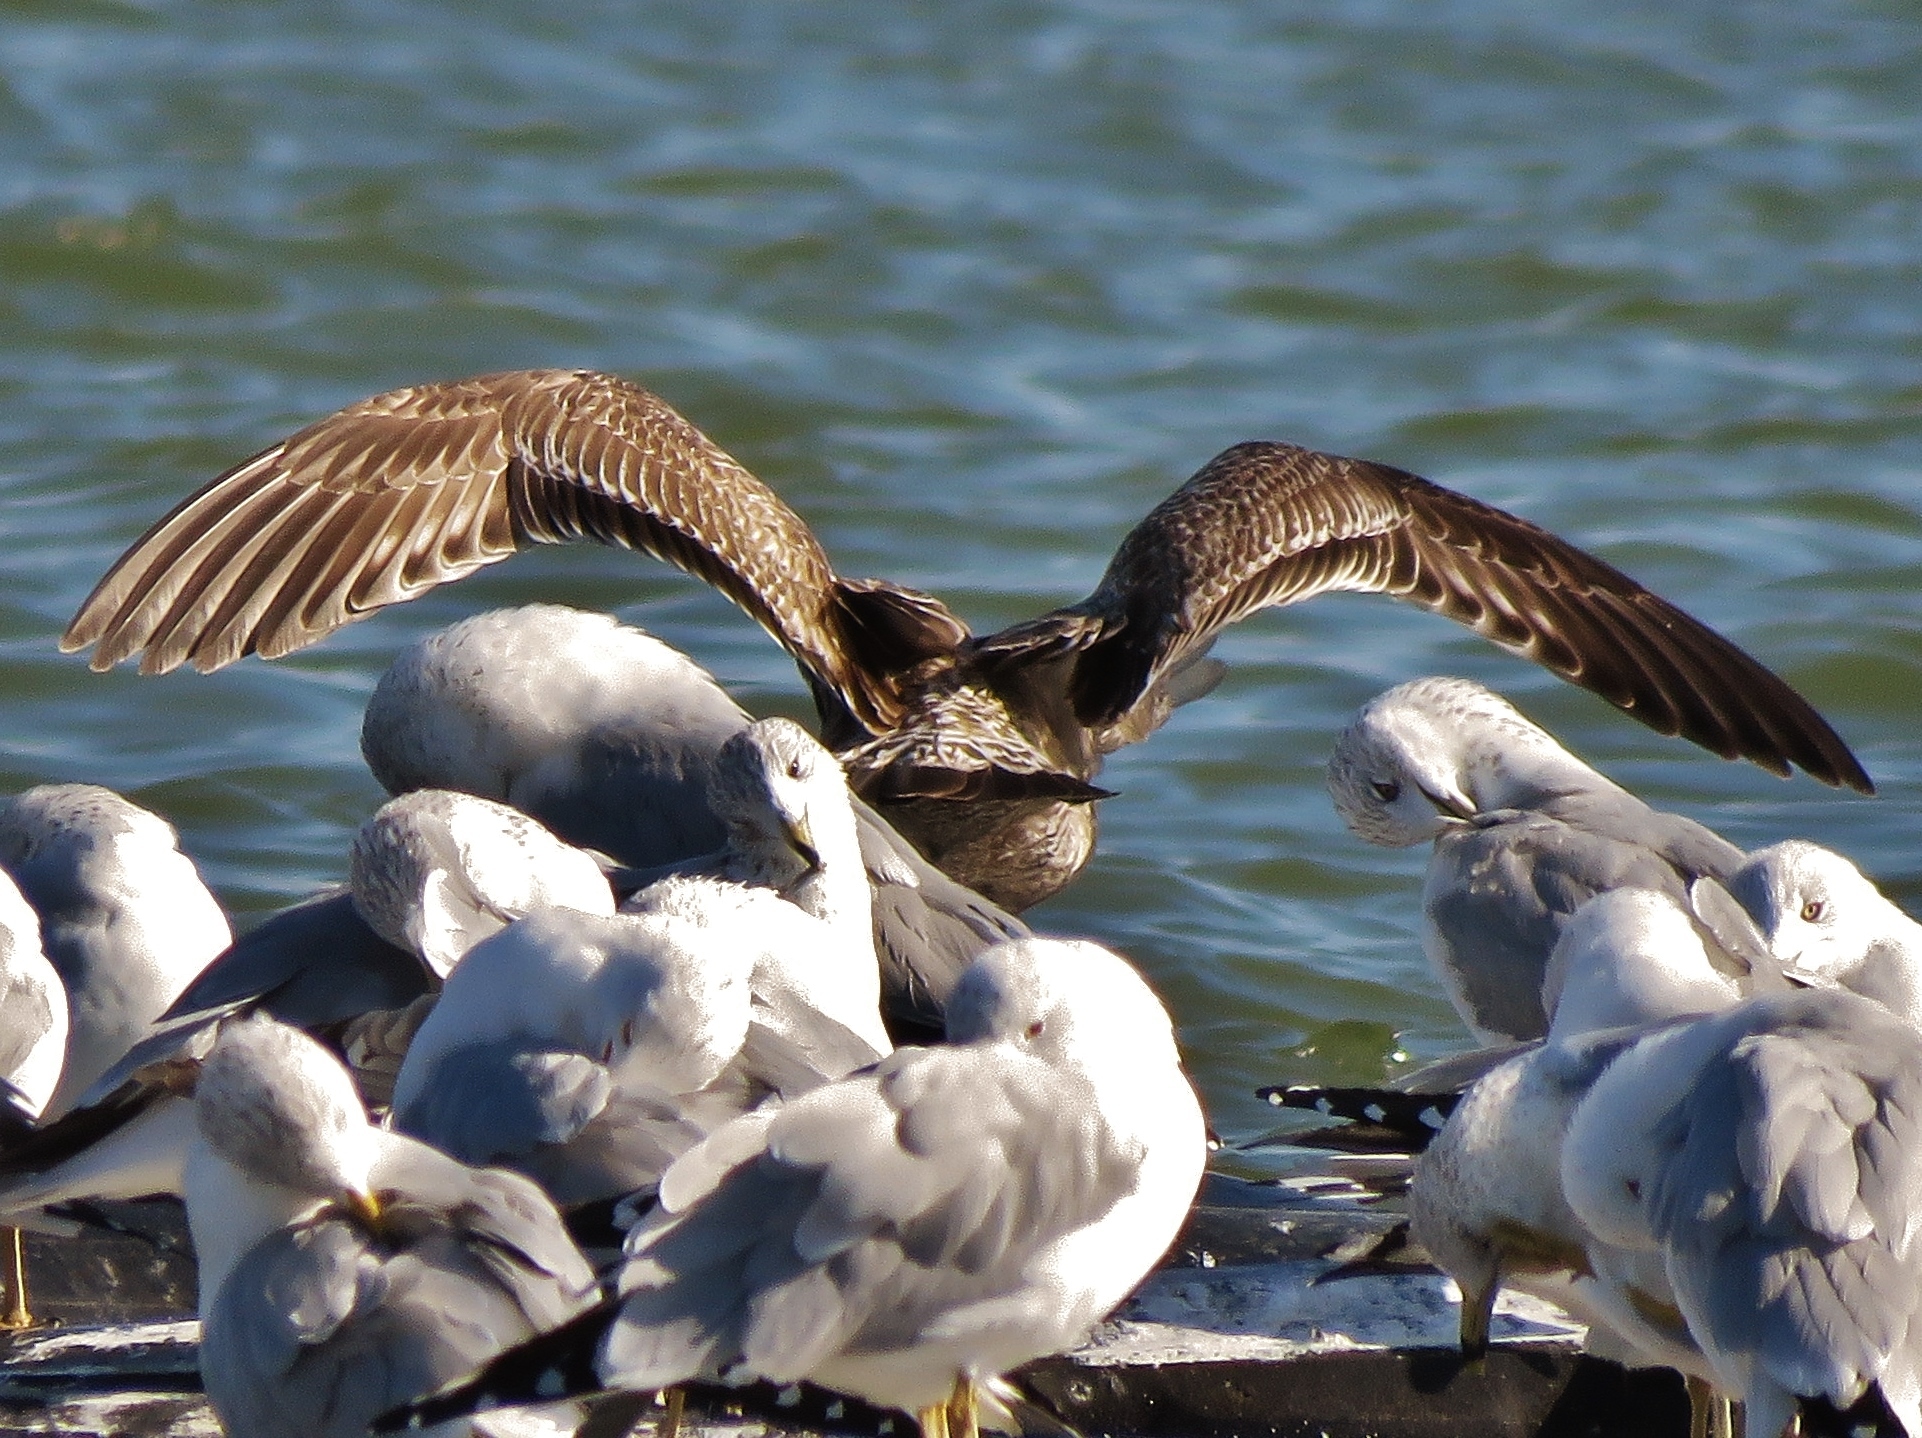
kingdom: Animalia
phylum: Chordata
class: Aves
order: Charadriiformes
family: Laridae
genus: Larus
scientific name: Larus argentatus
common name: Herring gull
